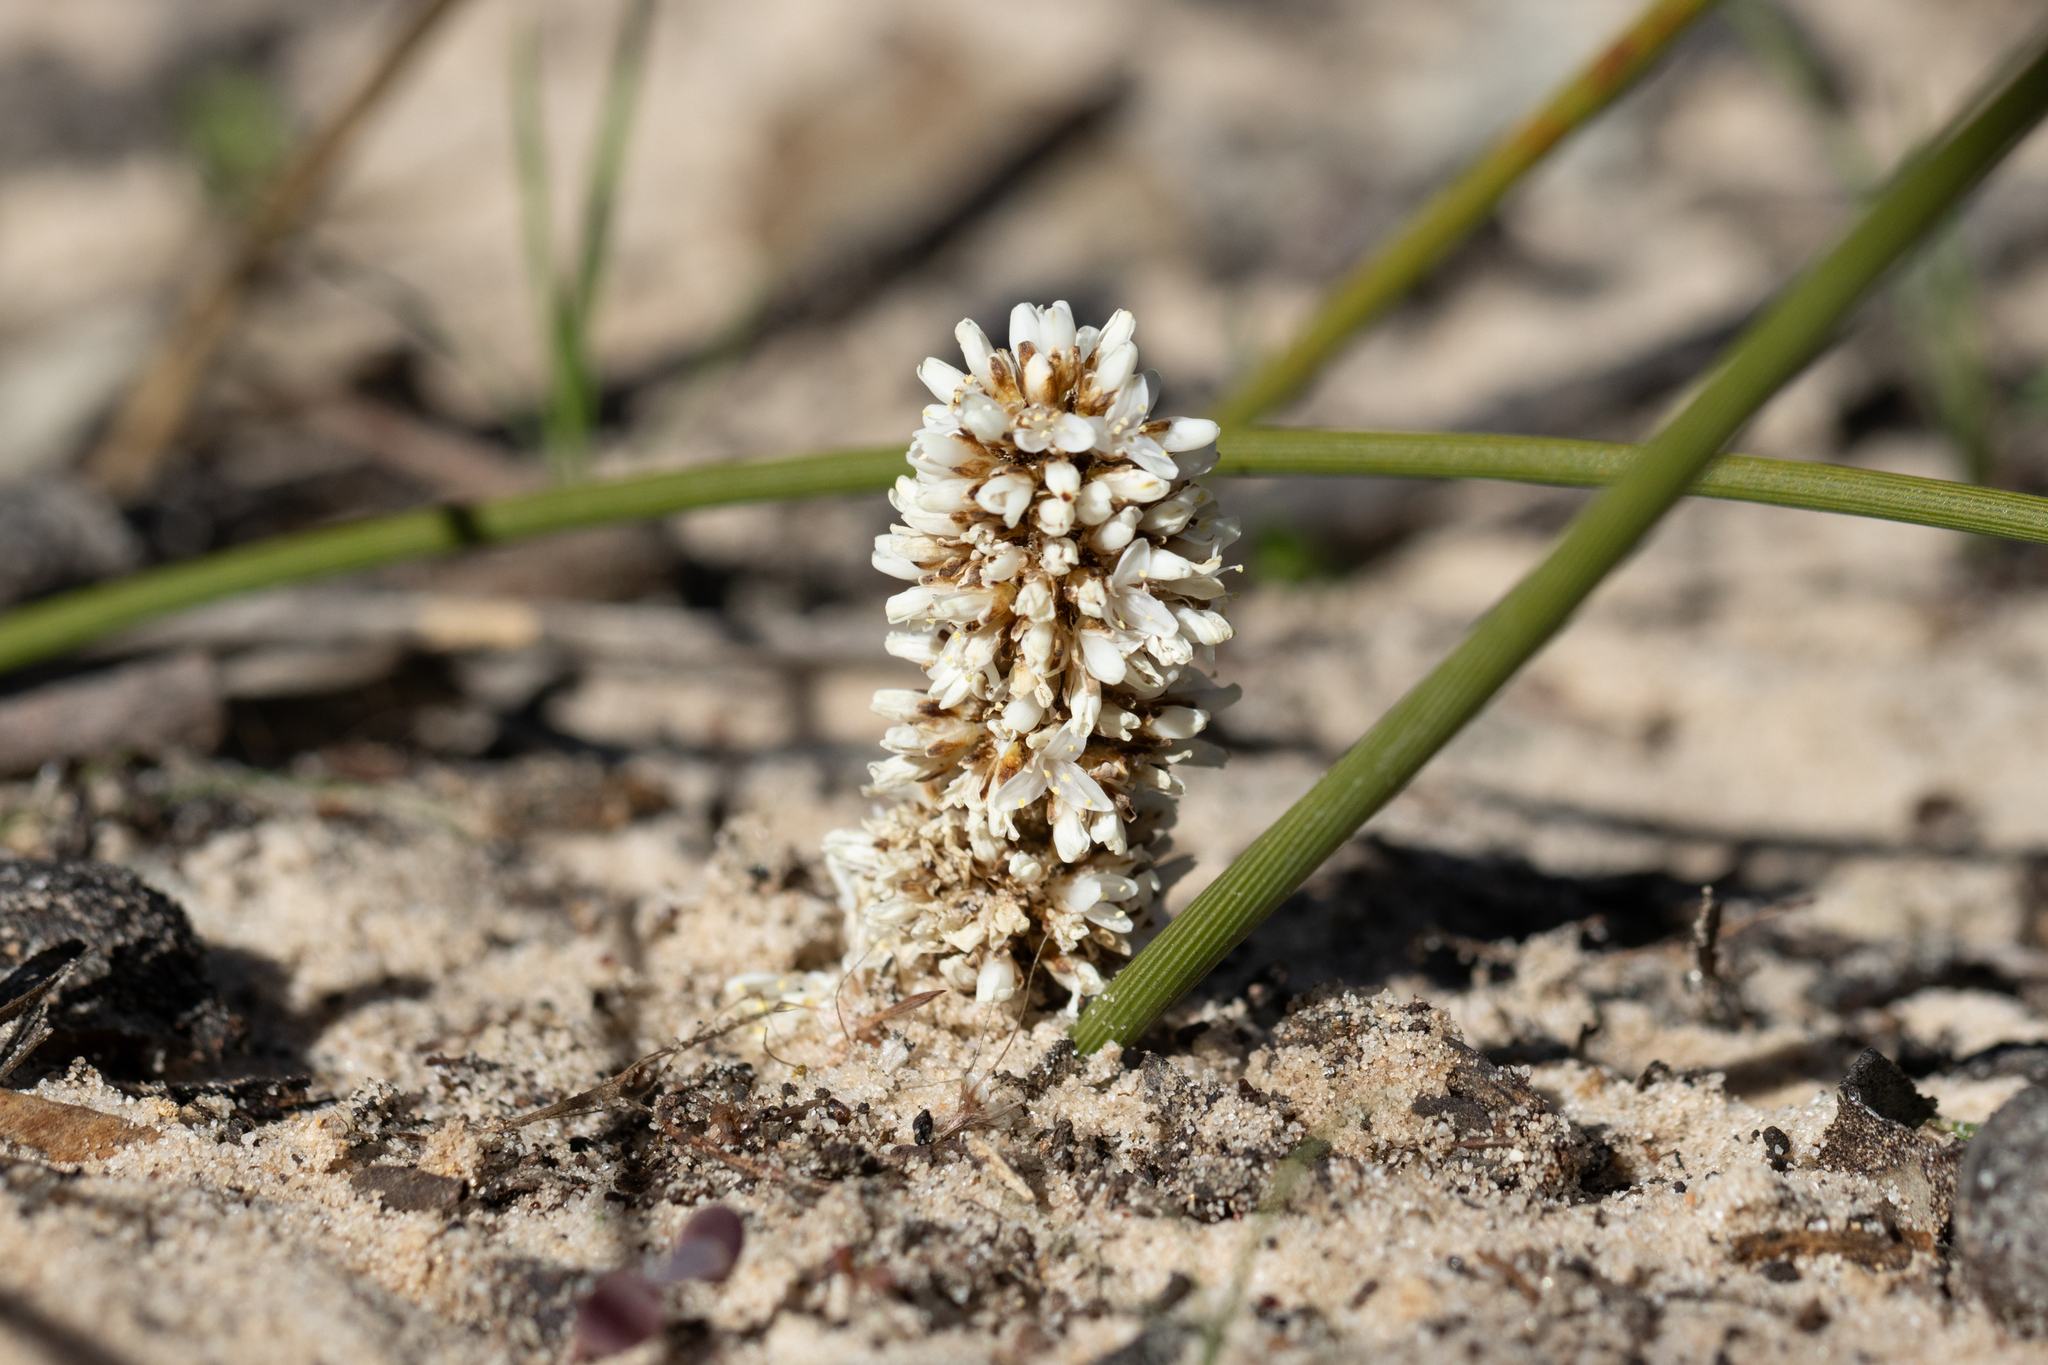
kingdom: Plantae
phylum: Tracheophyta
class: Liliopsida
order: Asparagales
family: Asparagaceae
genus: Lomandra
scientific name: Lomandra juncea
